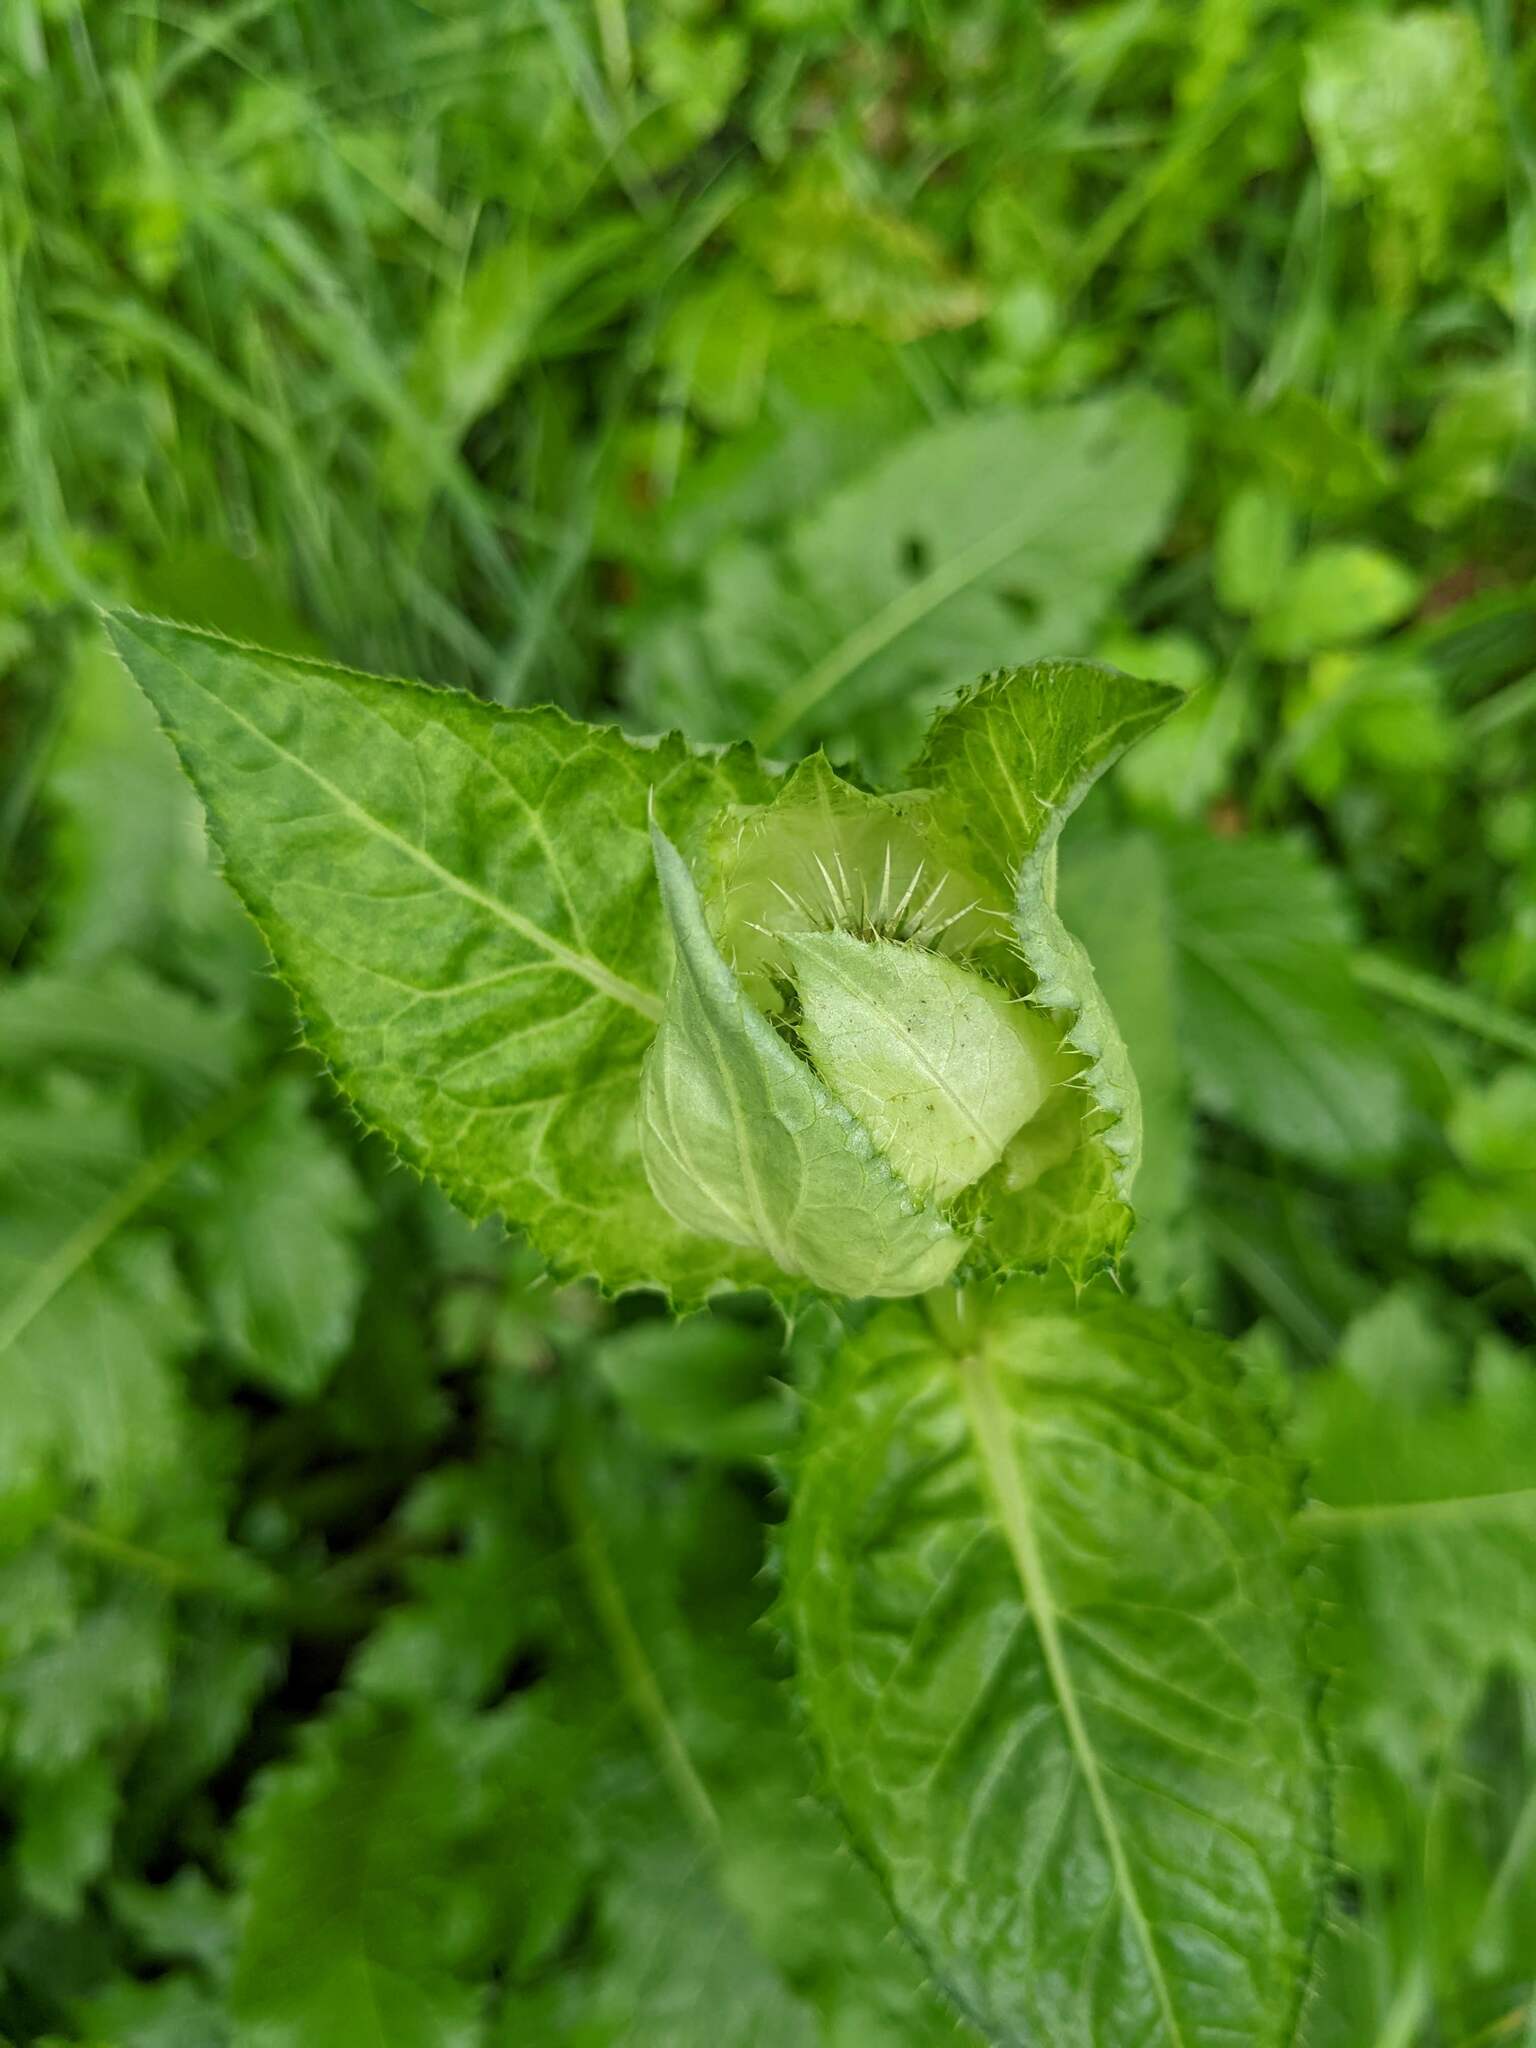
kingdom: Plantae
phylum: Tracheophyta
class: Magnoliopsida
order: Asterales
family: Asteraceae
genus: Cirsium
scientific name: Cirsium oleraceum
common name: Cabbage thistle
